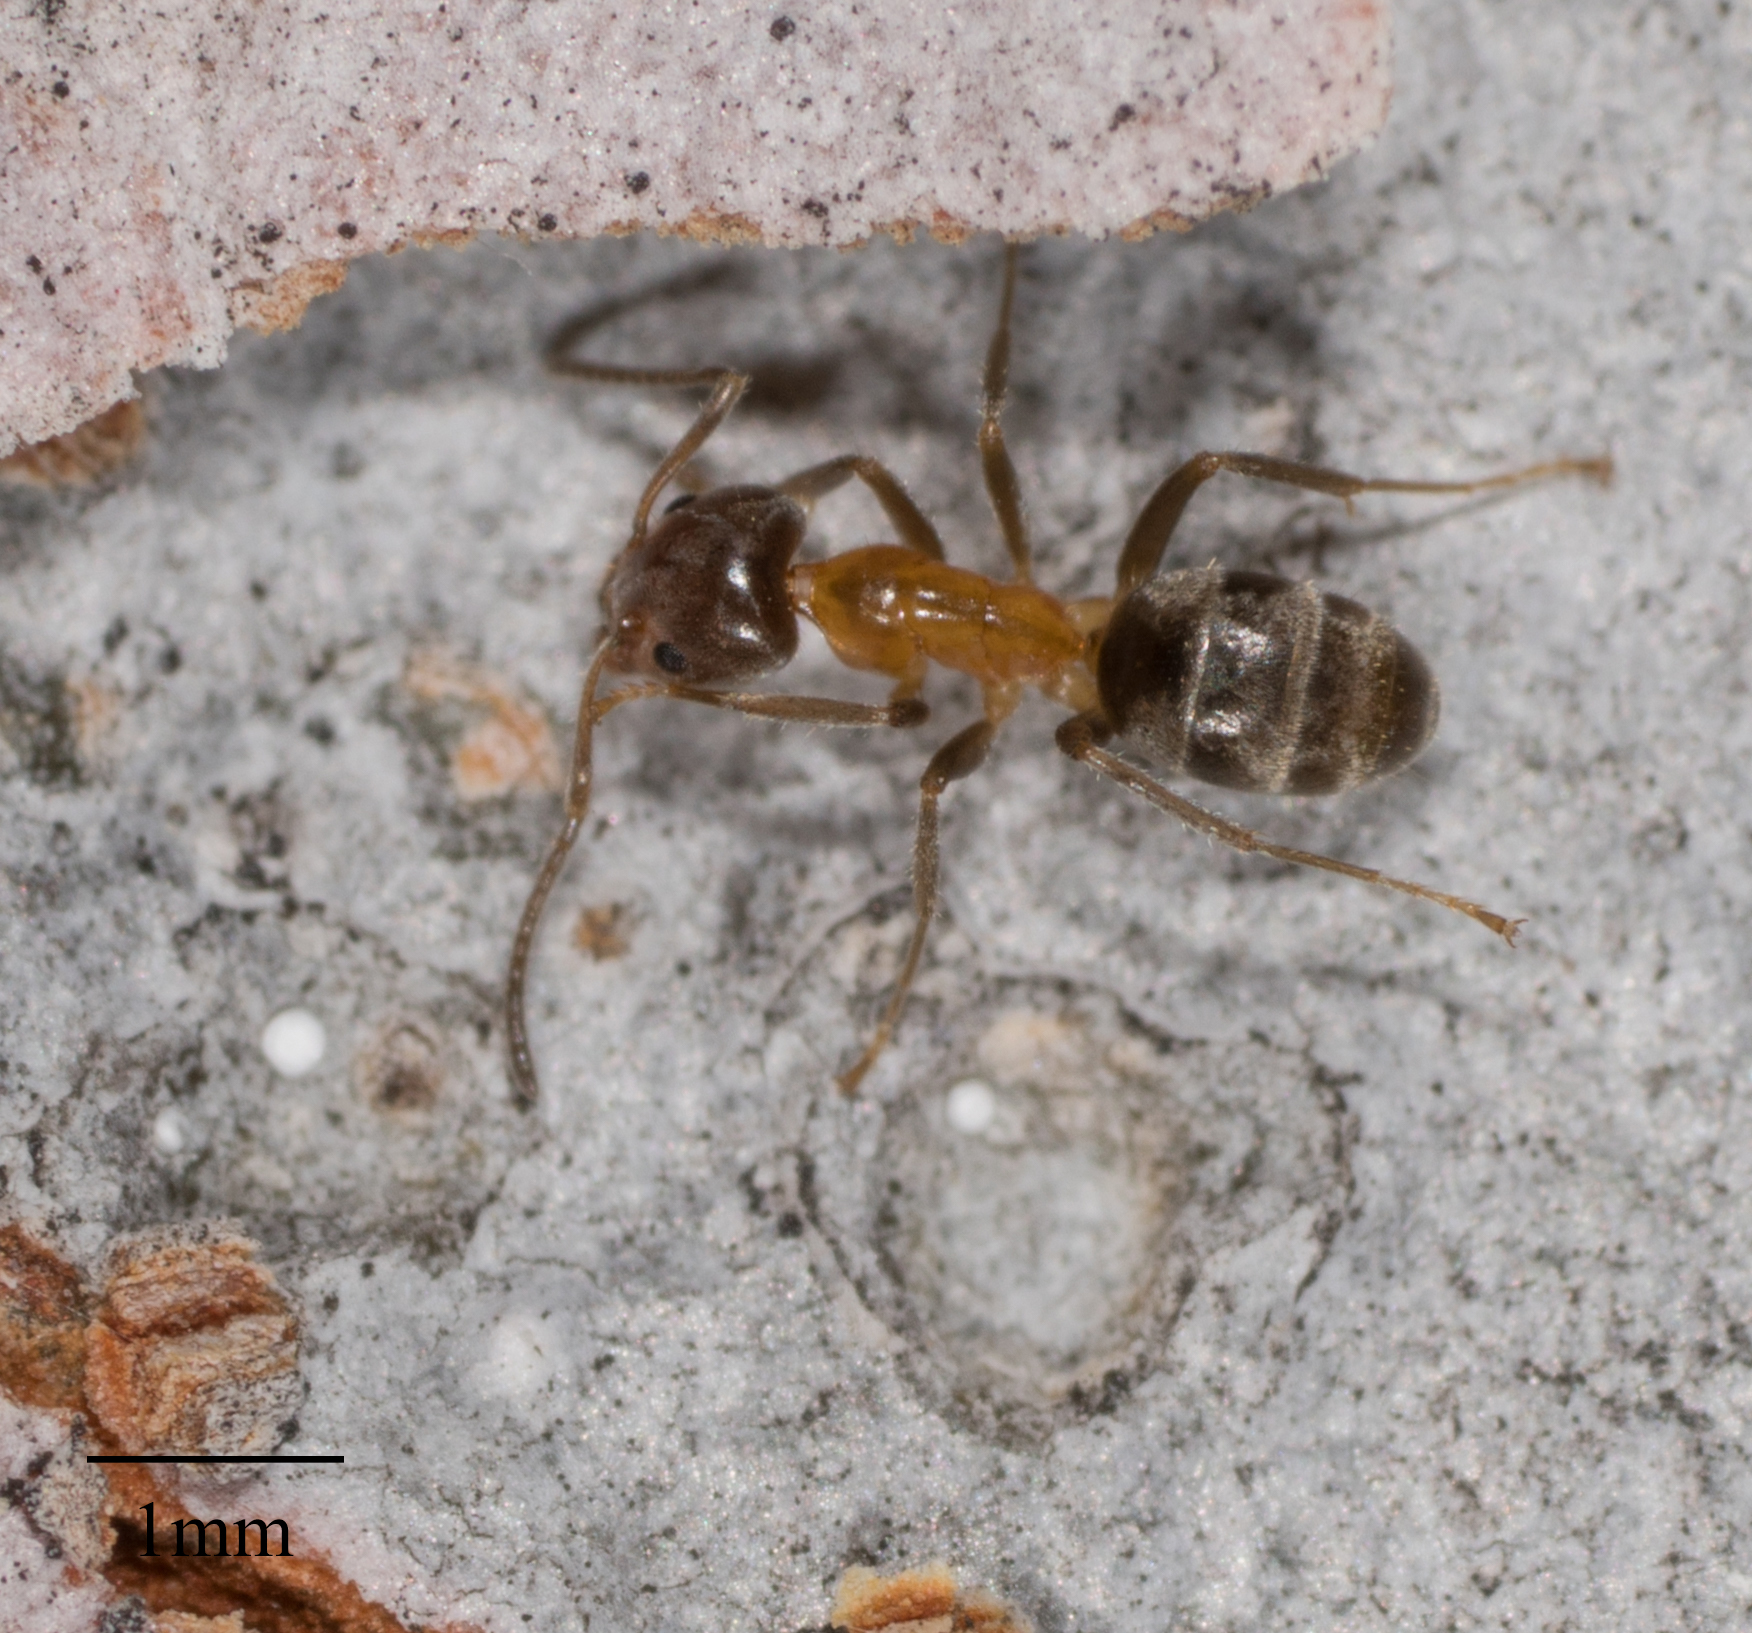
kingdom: Animalia
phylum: Arthropoda
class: Insecta
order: Hymenoptera
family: Formicidae
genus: Liometopum
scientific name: Liometopum occidentale
